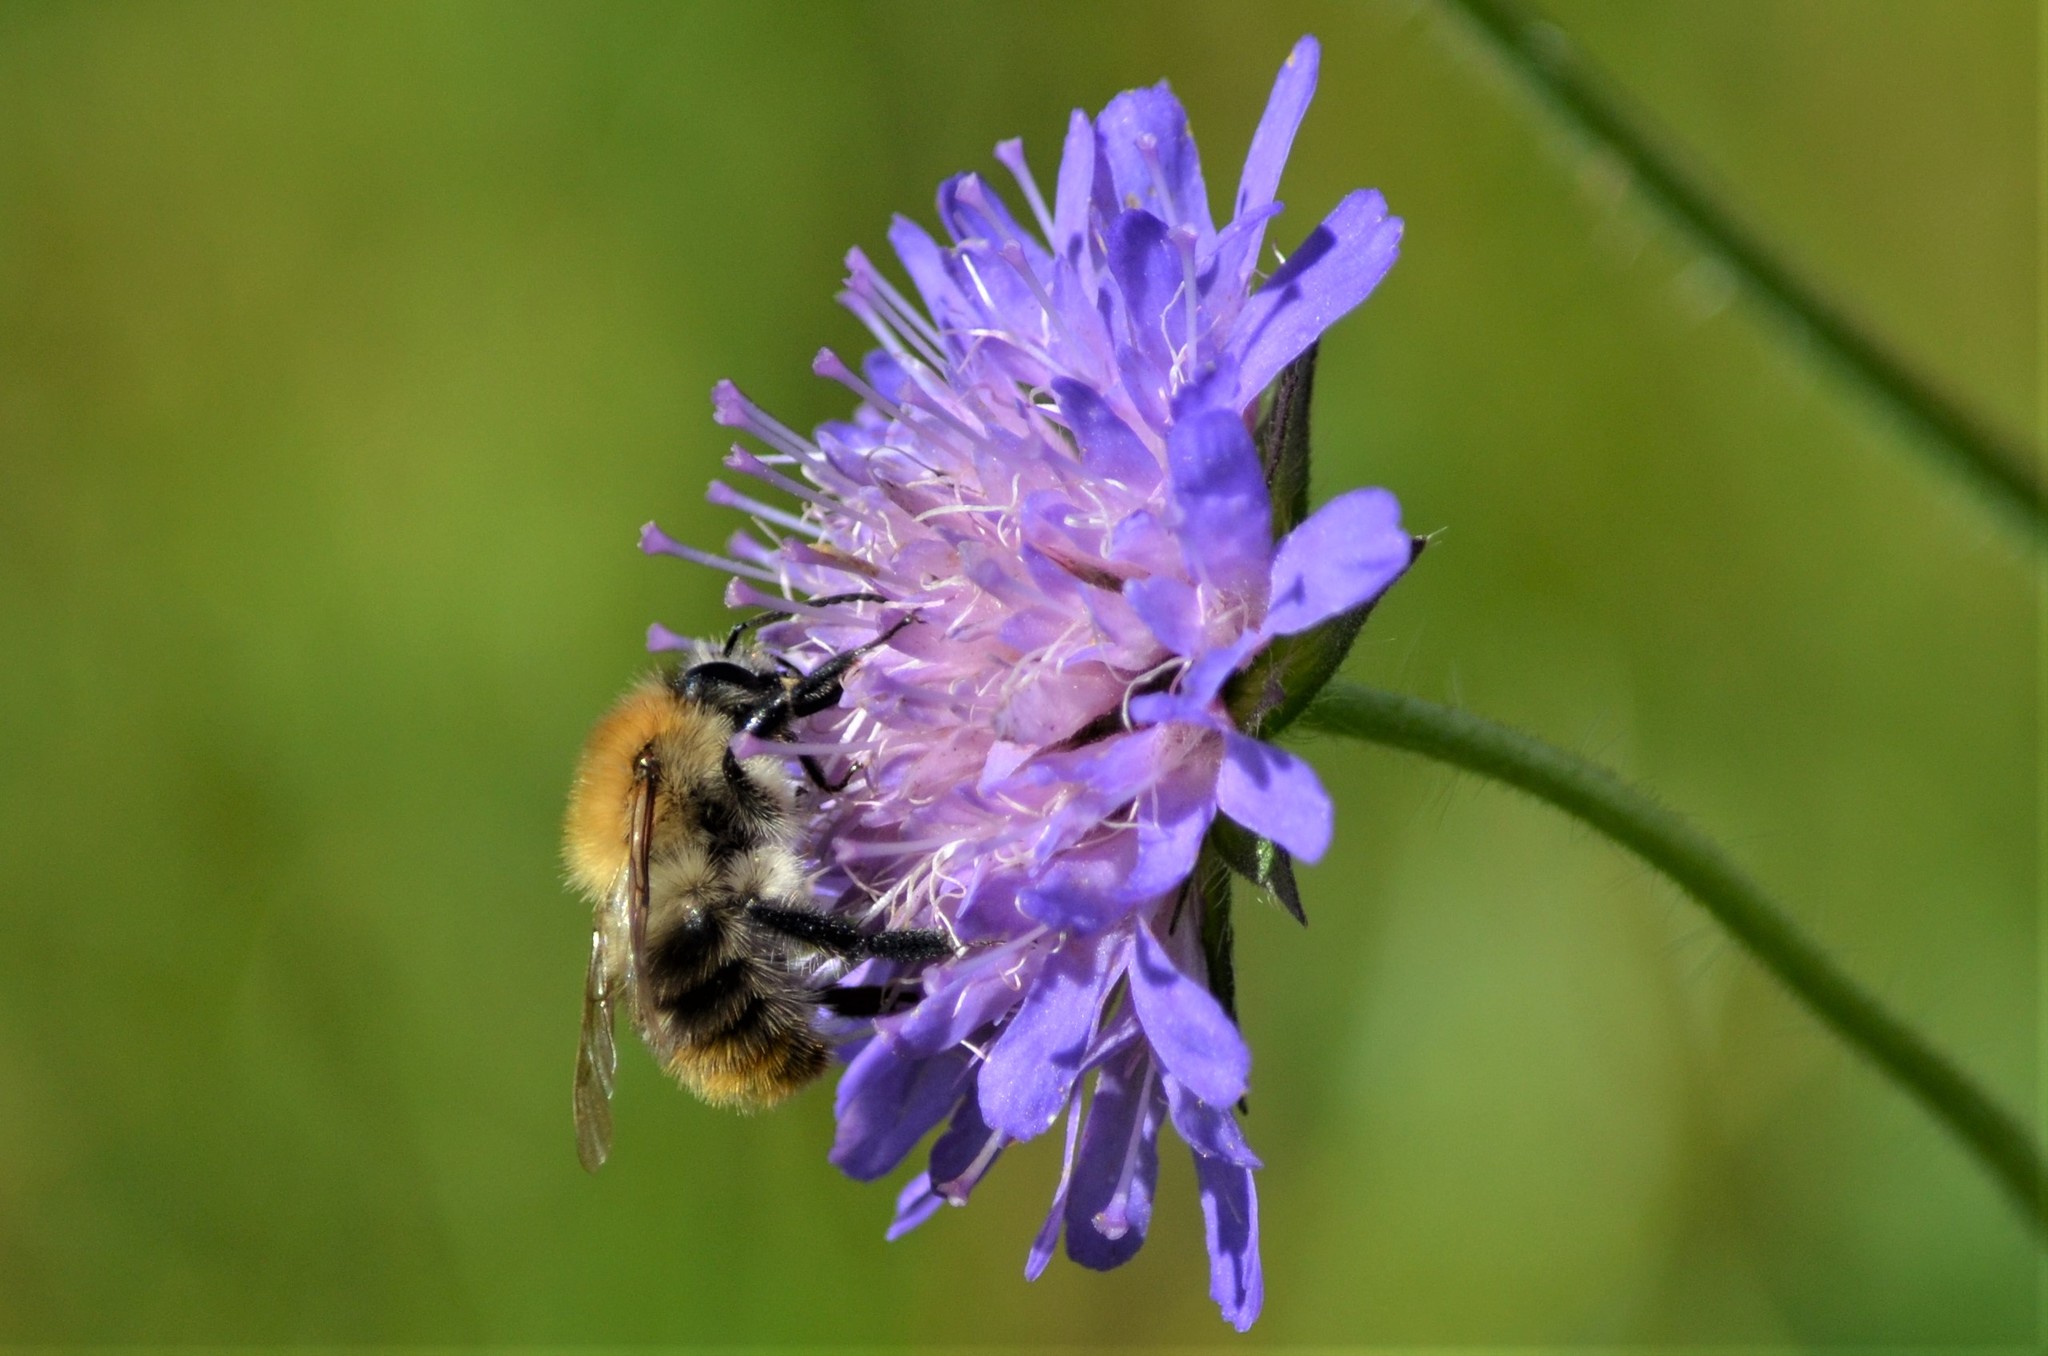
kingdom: Animalia
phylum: Arthropoda
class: Insecta
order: Hymenoptera
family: Apidae
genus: Bombus
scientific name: Bombus pascuorum
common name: Common carder bee
